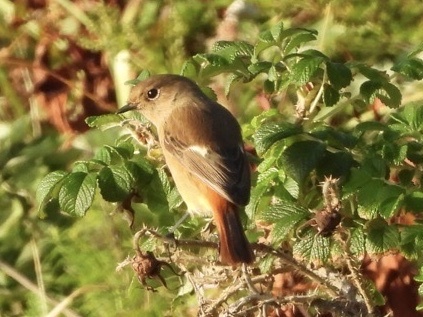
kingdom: Animalia
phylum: Chordata
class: Aves
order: Passeriformes
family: Muscicapidae
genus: Phoenicurus
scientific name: Phoenicurus auroreus
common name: Daurian redstart
